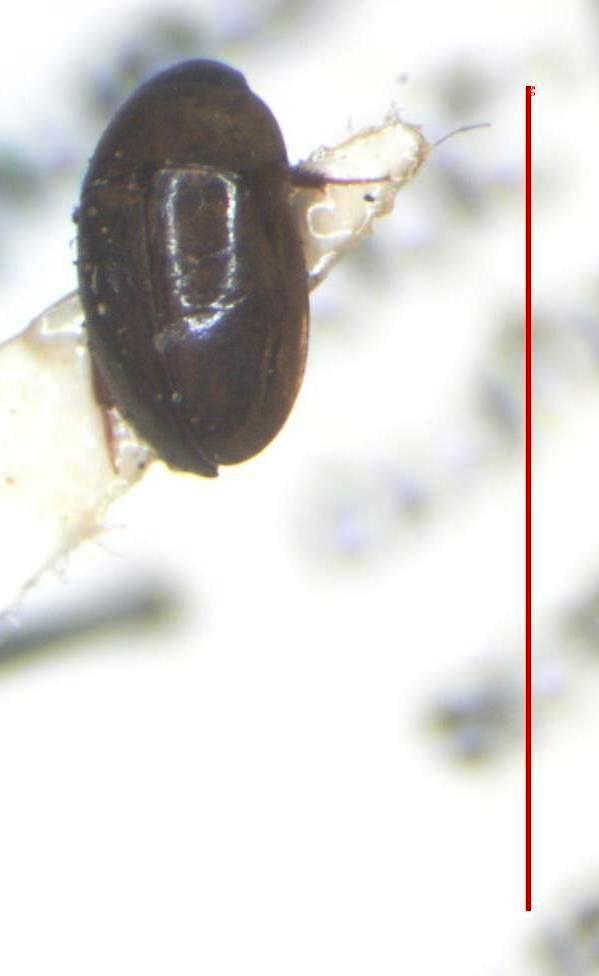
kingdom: Animalia
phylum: Arthropoda
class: Insecta
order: Coleoptera
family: Hydrophilidae
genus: Enochrus
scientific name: Enochrus
